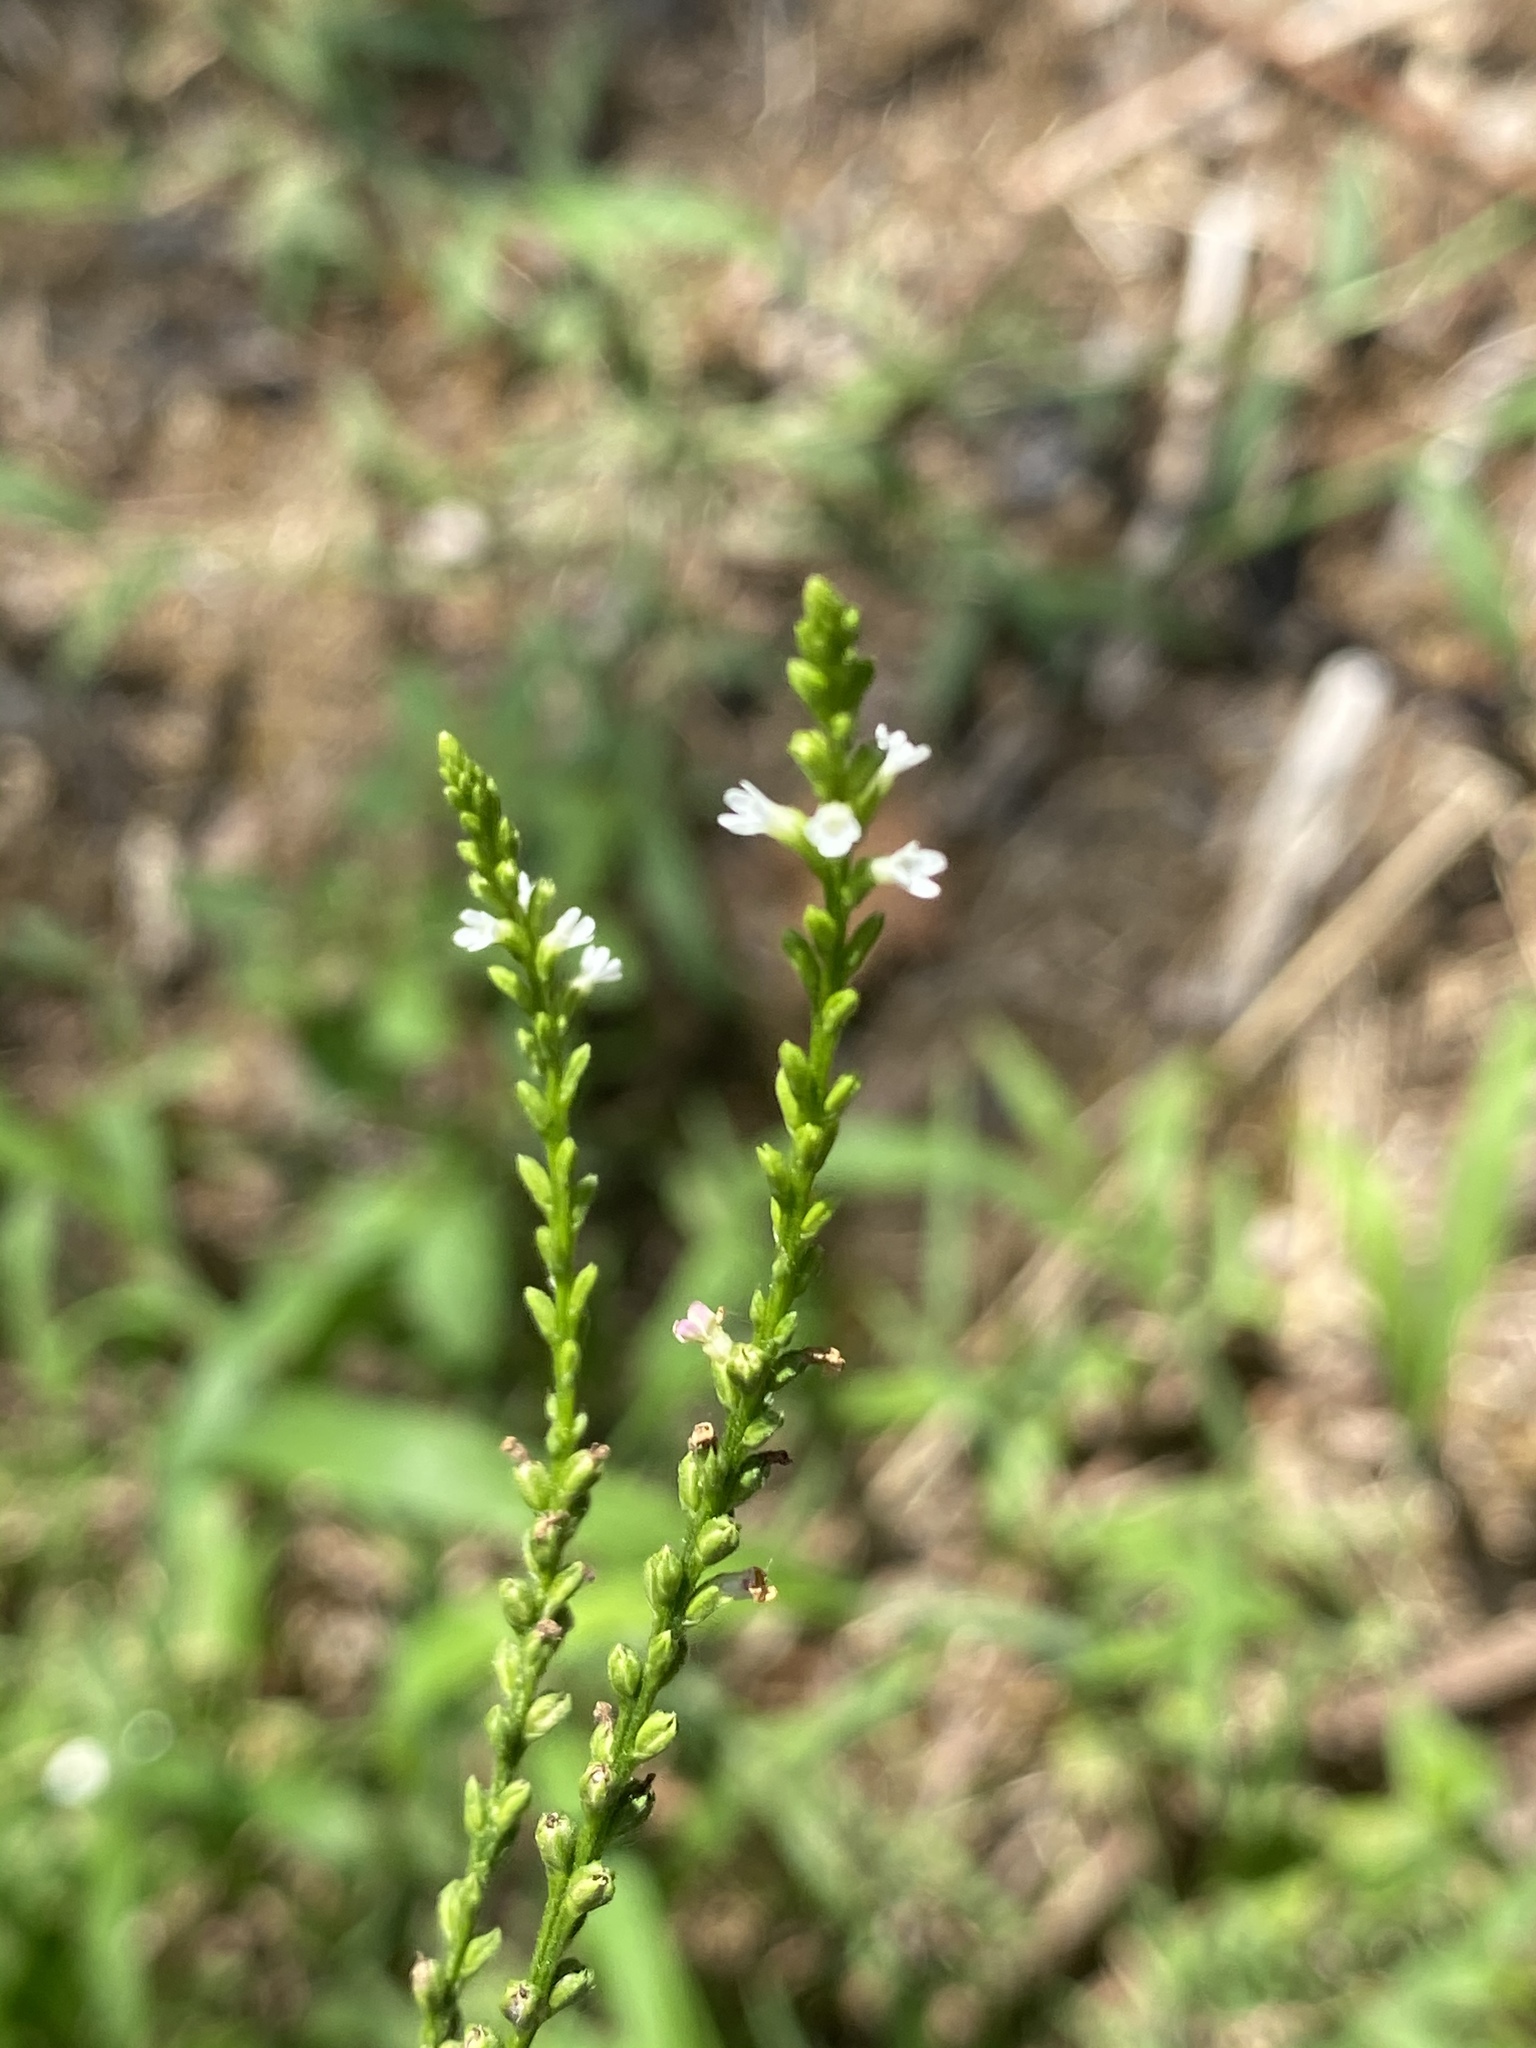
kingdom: Plantae
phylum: Tracheophyta
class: Magnoliopsida
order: Lamiales
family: Verbenaceae
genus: Verbena
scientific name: Verbena urticifolia
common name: Nettle-leaved vervain
